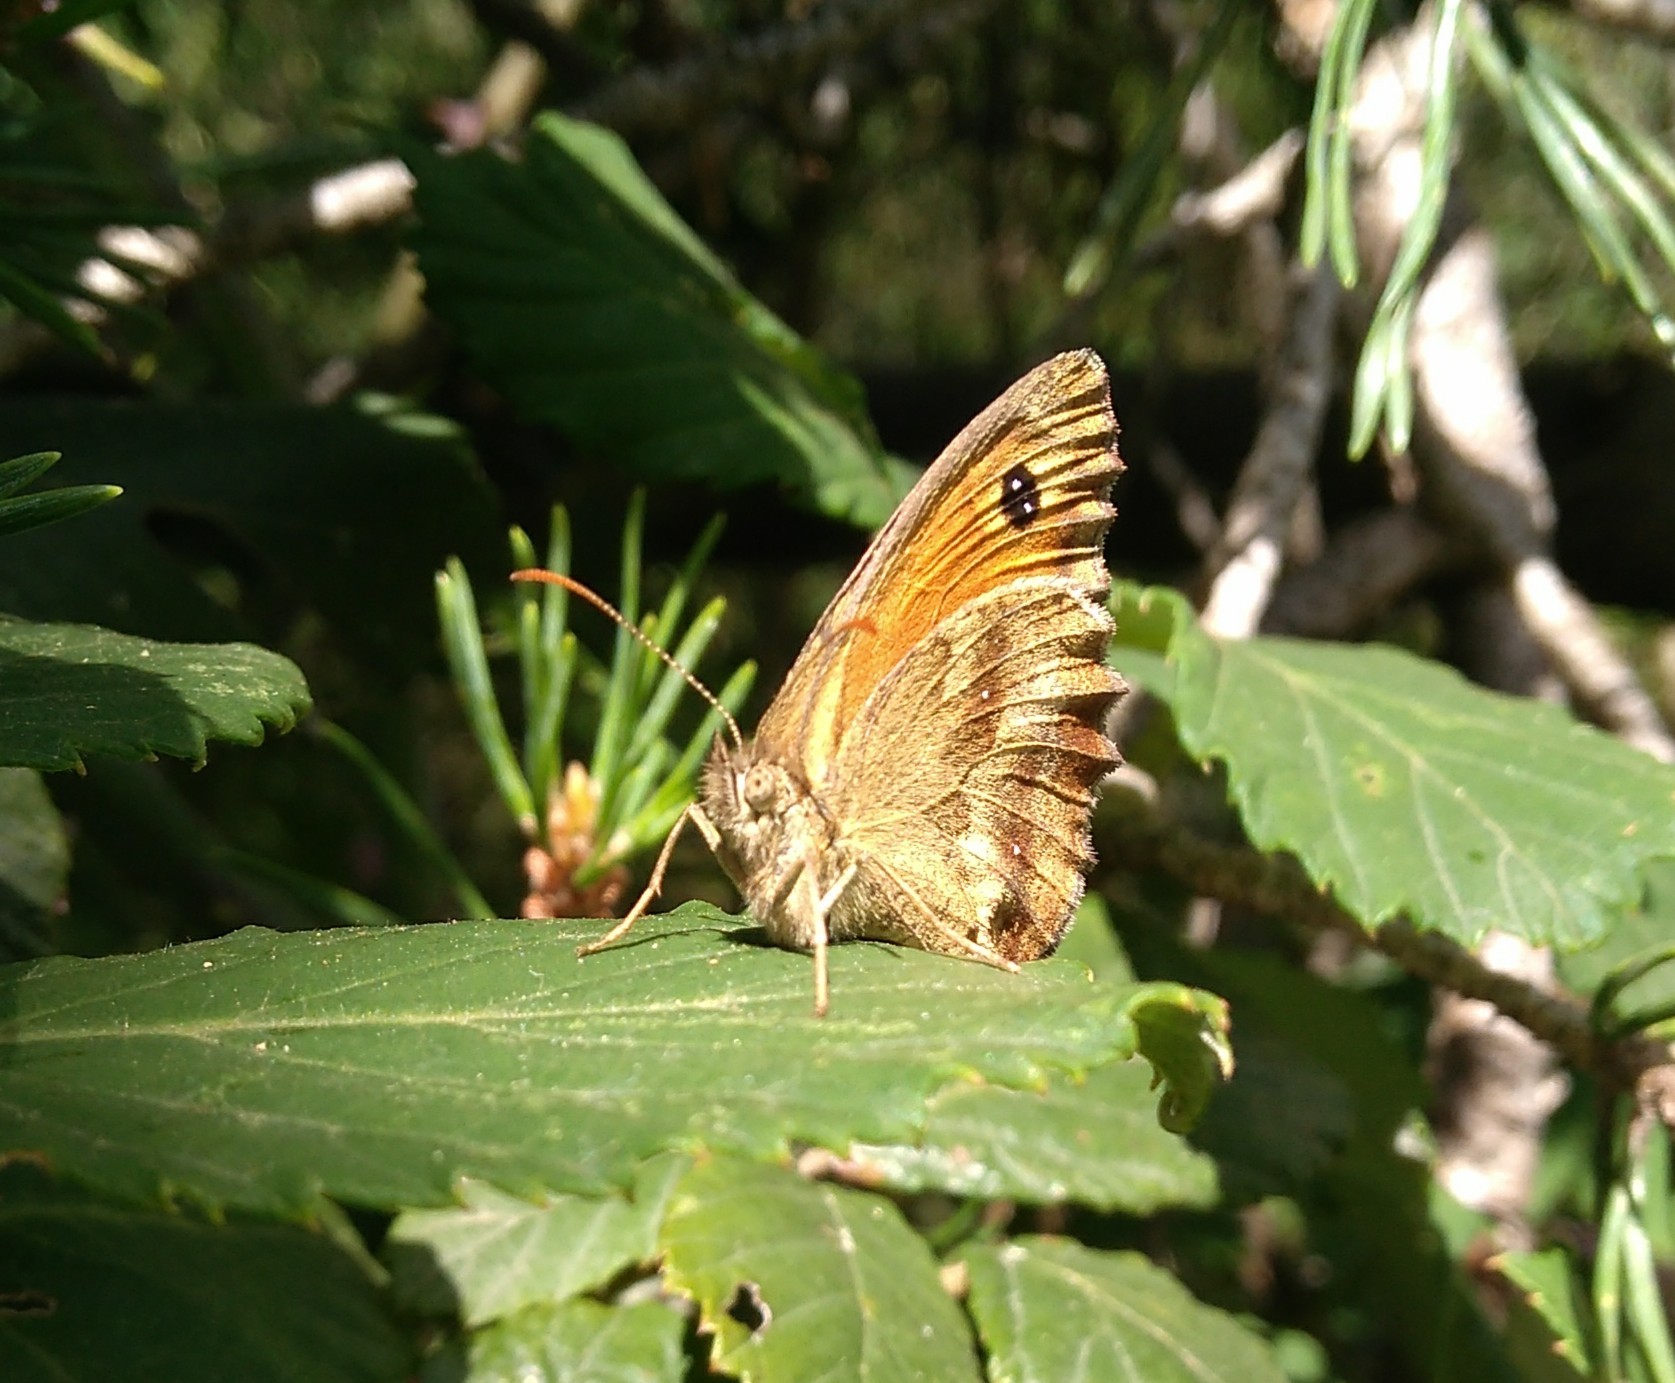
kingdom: Animalia
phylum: Arthropoda
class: Insecta
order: Lepidoptera
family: Nymphalidae
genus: Pyronia
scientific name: Pyronia tithonus
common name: Gatekeeper
